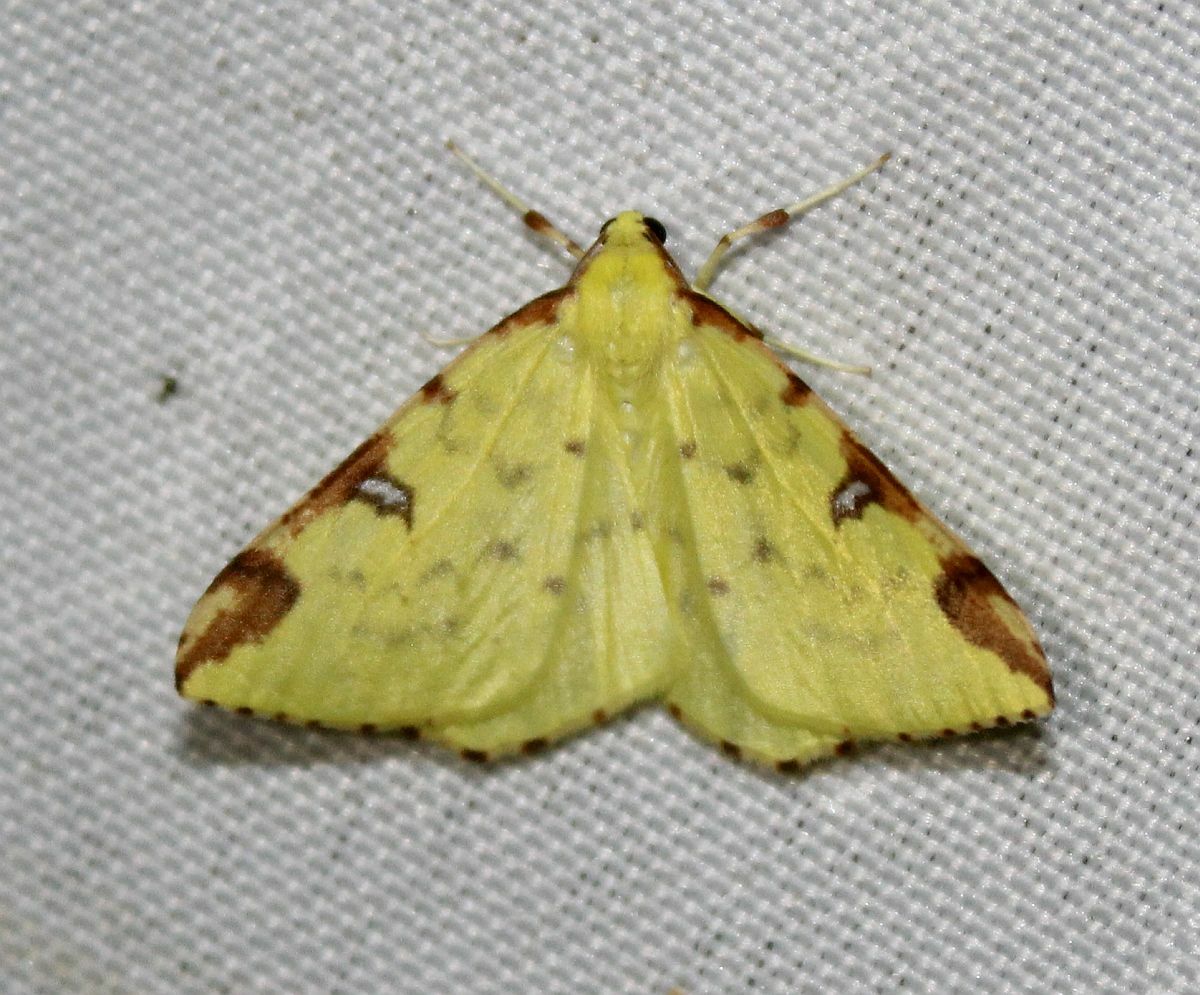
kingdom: Animalia
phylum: Arthropoda
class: Insecta
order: Lepidoptera
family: Geometridae
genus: Opisthograptis
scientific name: Opisthograptis luteolata
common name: Brimstone moth
